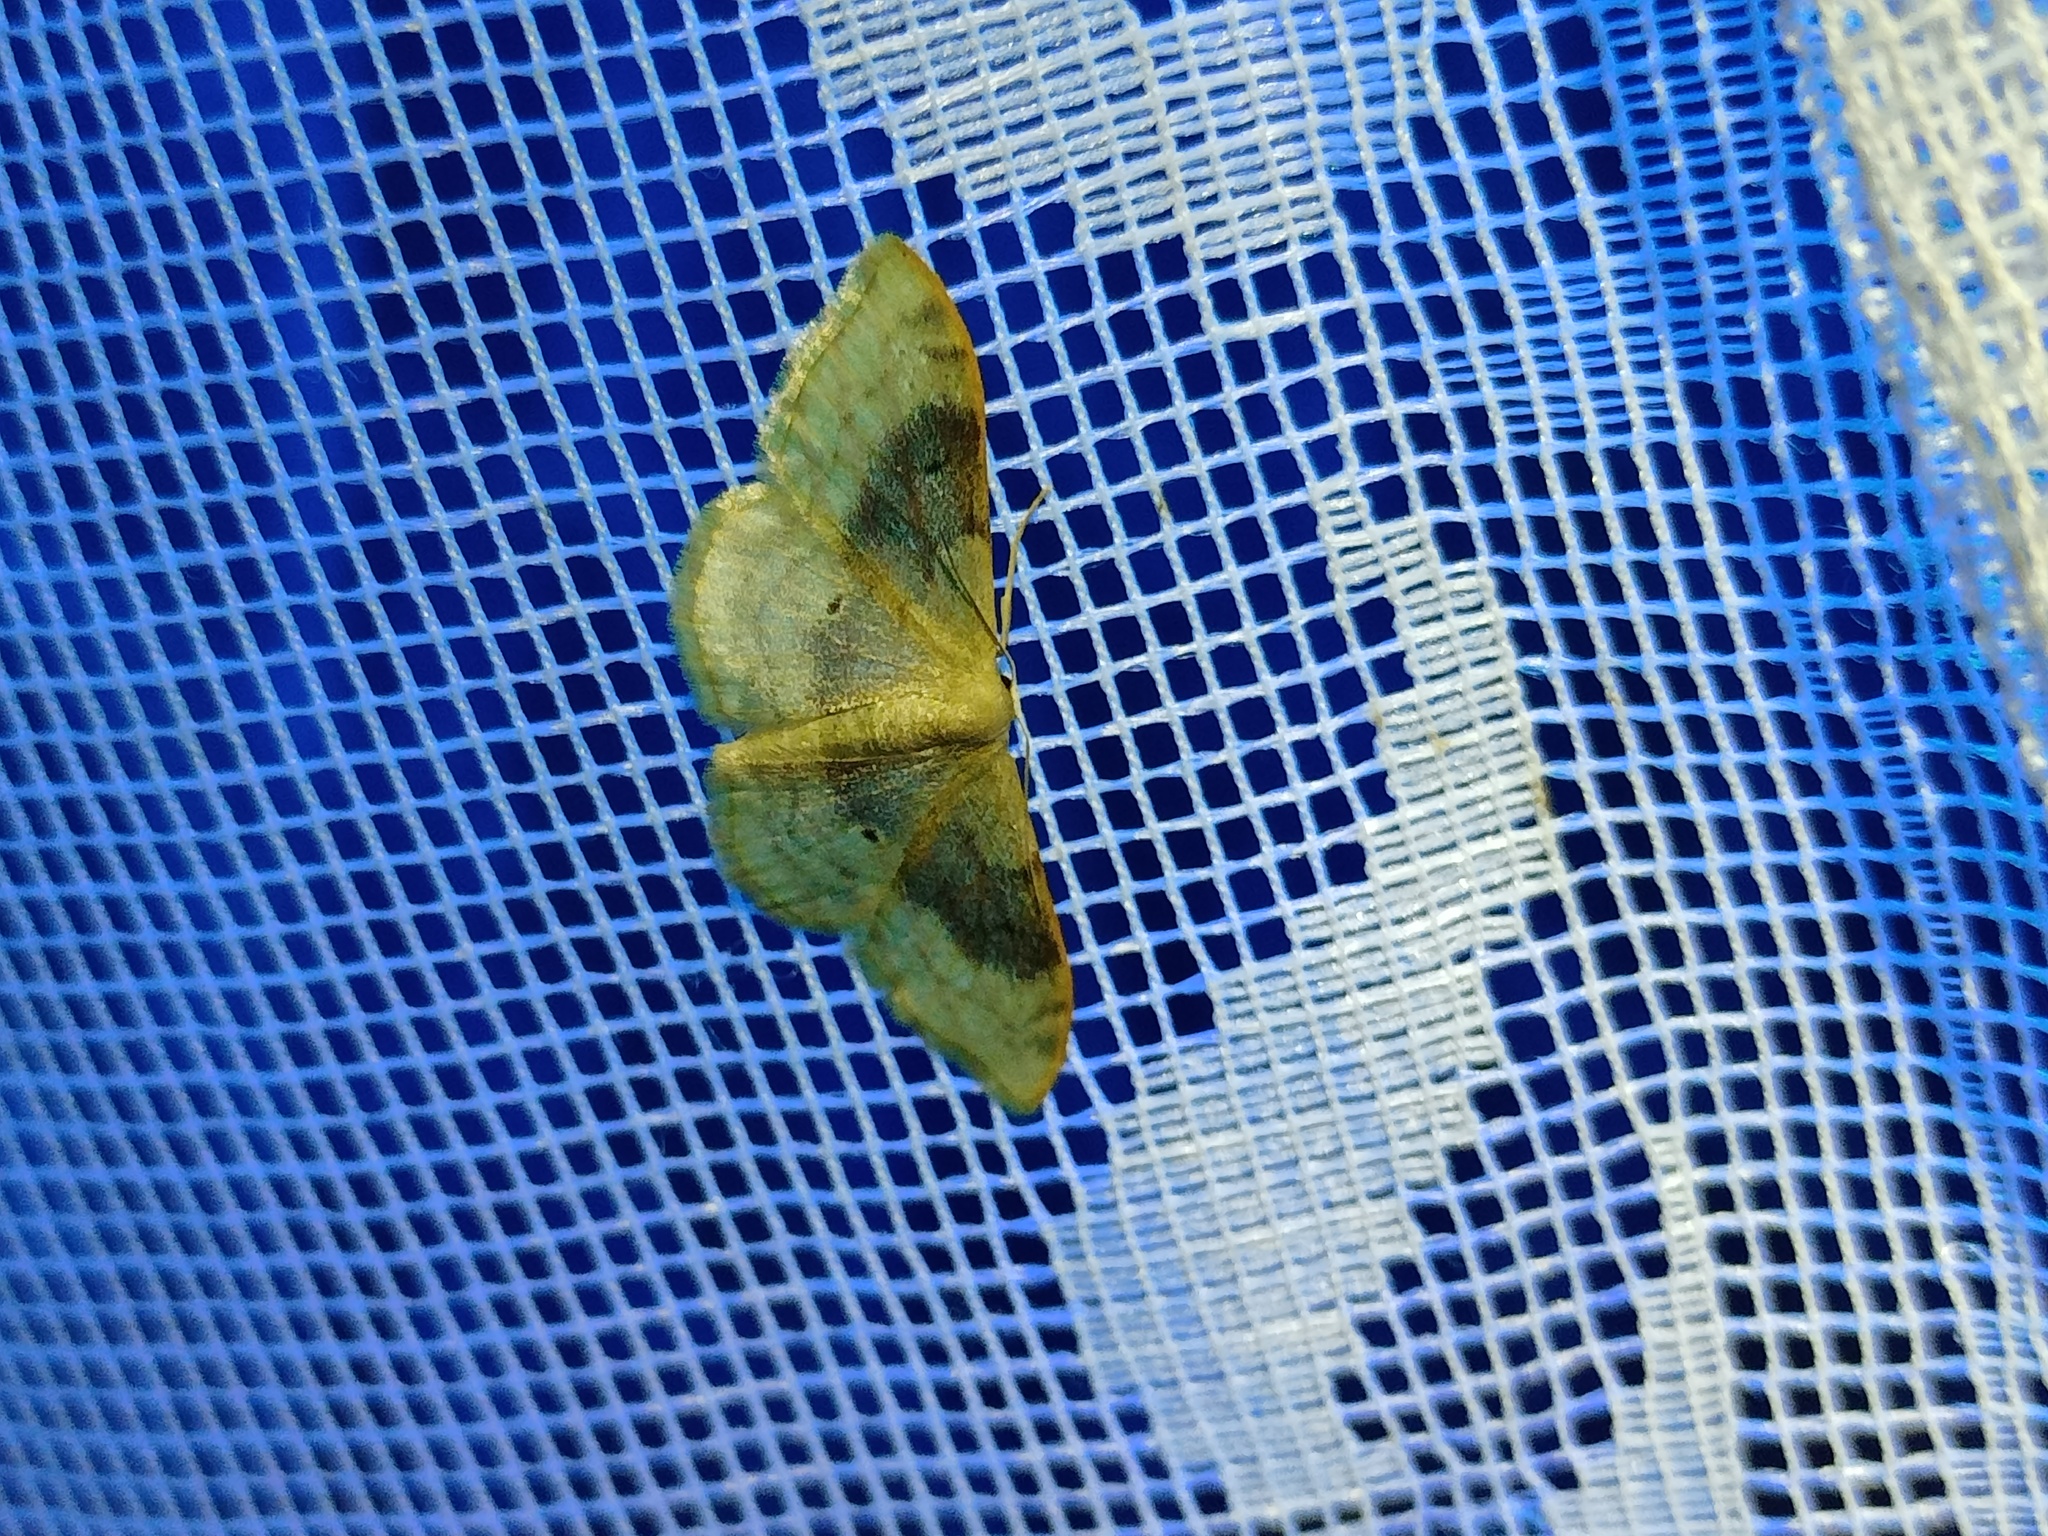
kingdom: Animalia
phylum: Arthropoda
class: Insecta
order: Lepidoptera
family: Geometridae
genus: Idaea
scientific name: Idaea degeneraria
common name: Portland ribbon wave
